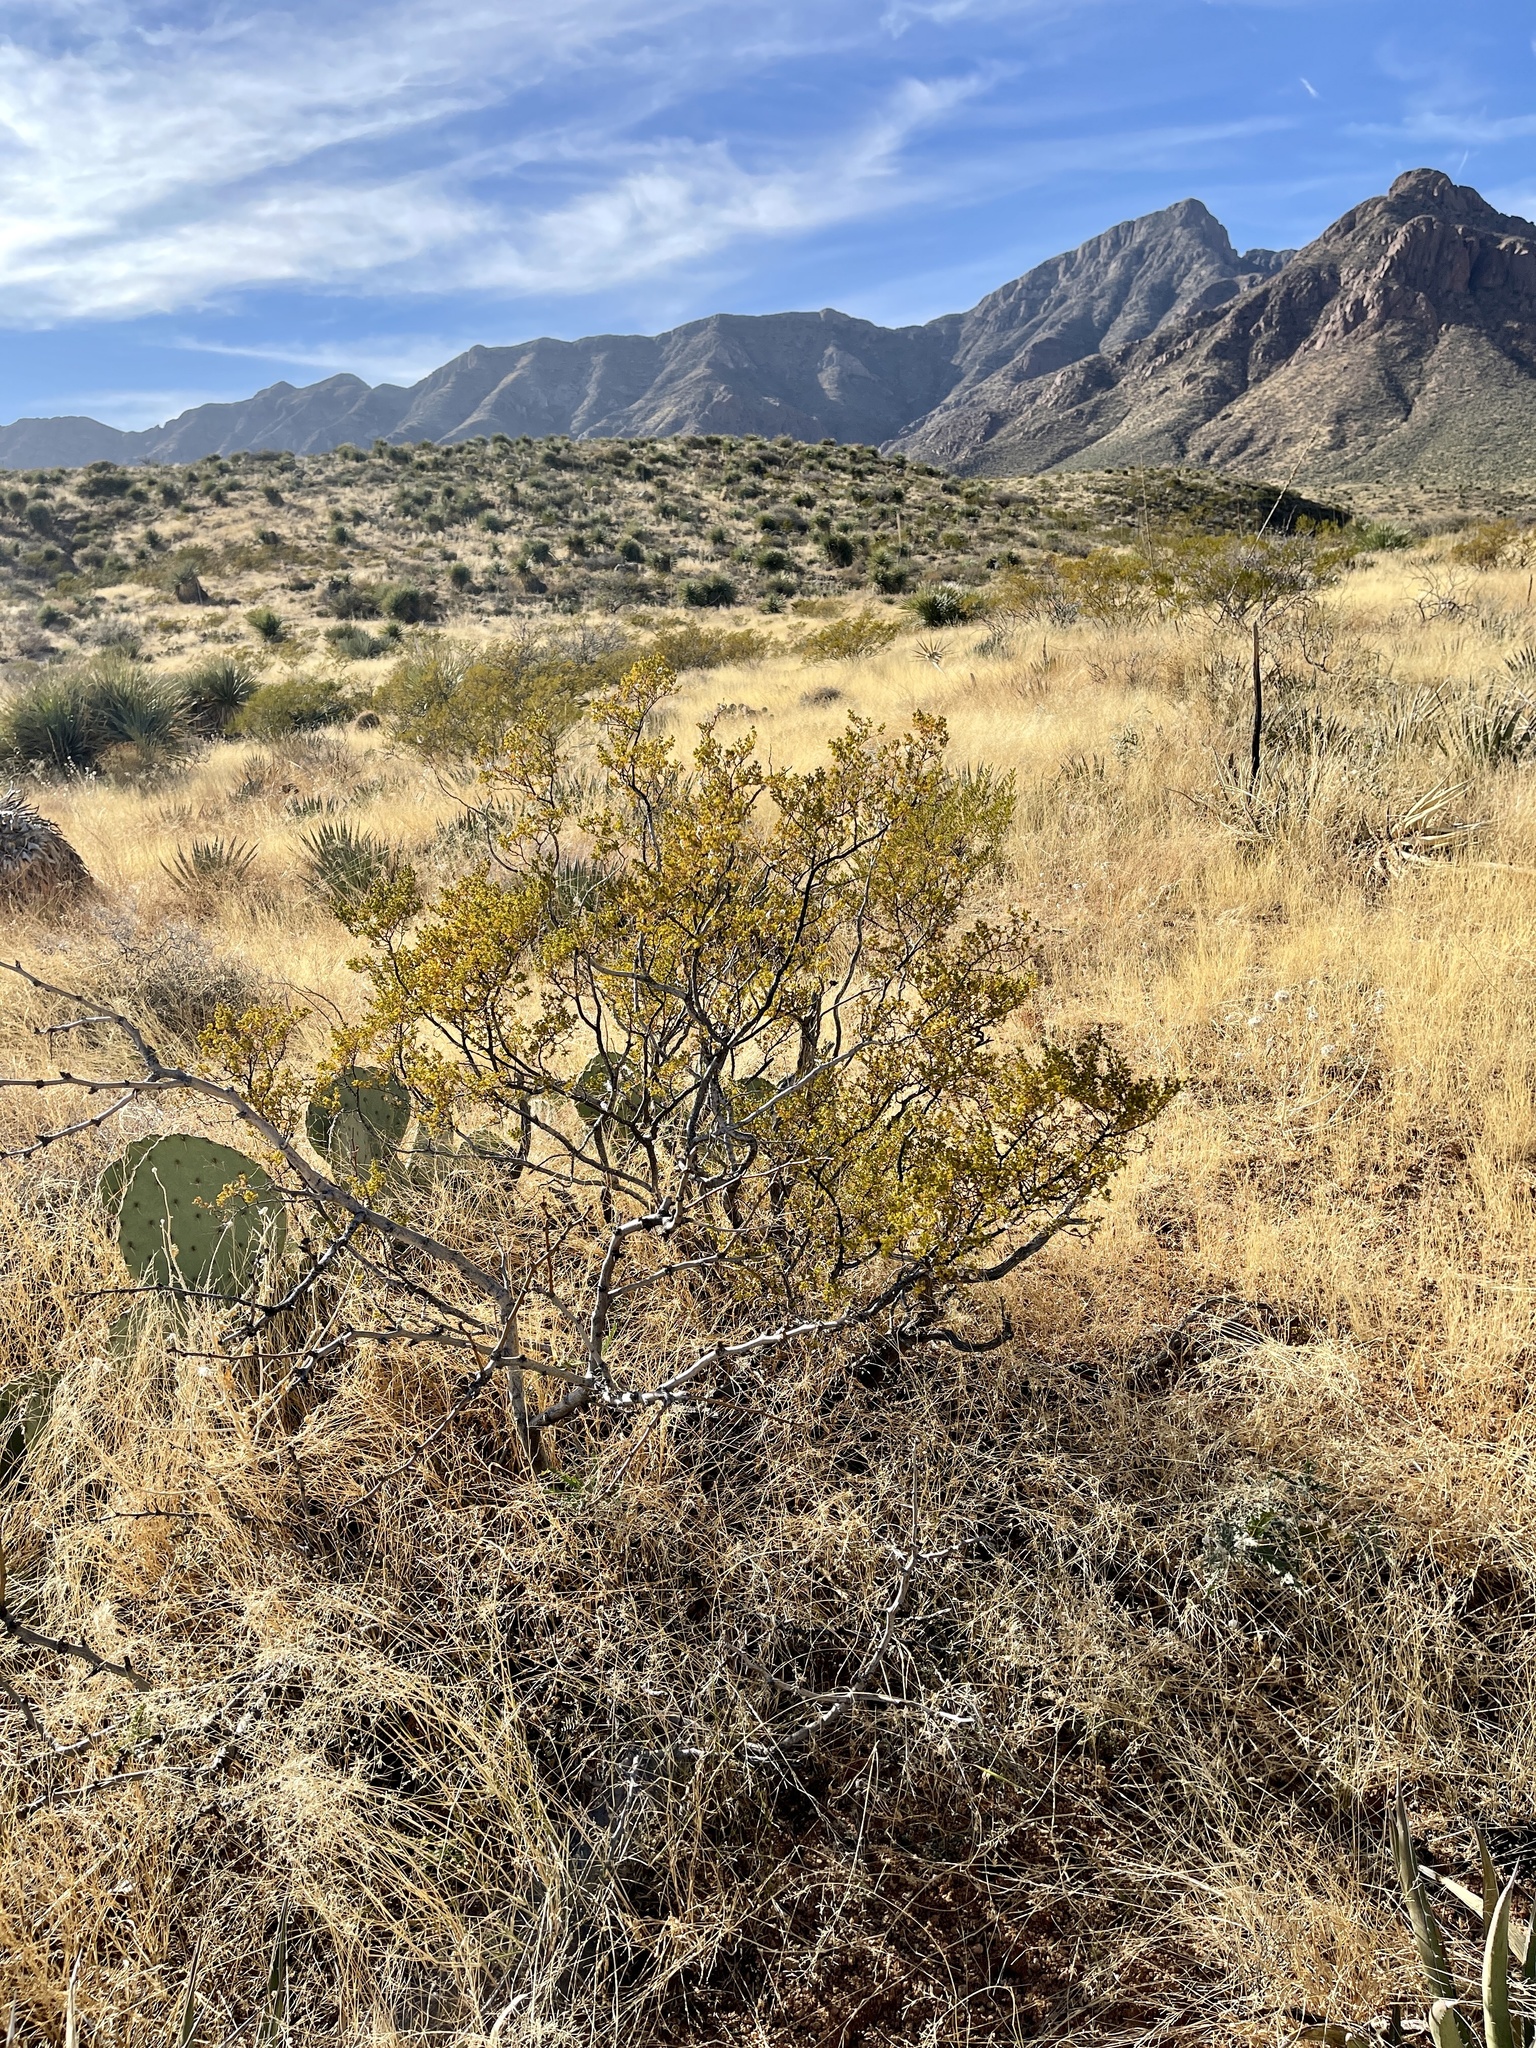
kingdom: Plantae
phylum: Tracheophyta
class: Magnoliopsida
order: Zygophyllales
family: Zygophyllaceae
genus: Larrea
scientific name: Larrea tridentata
